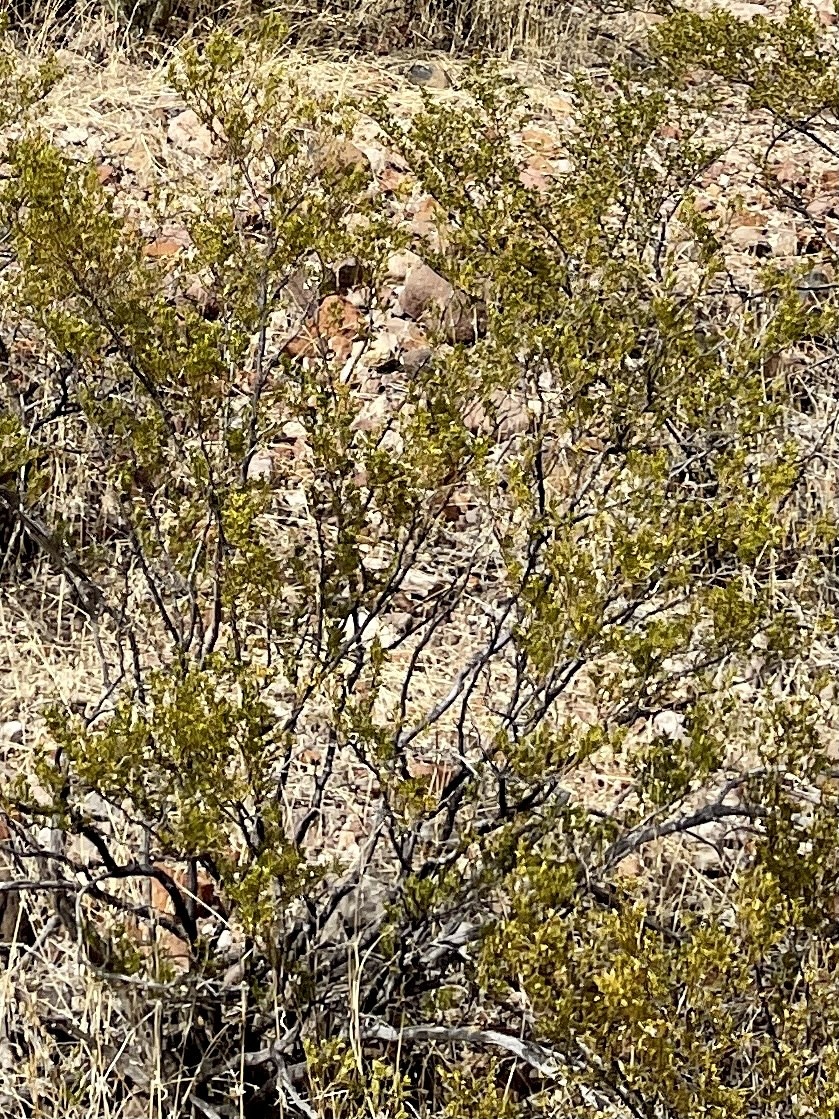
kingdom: Plantae
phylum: Tracheophyta
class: Magnoliopsida
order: Zygophyllales
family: Zygophyllaceae
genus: Larrea
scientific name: Larrea tridentata
